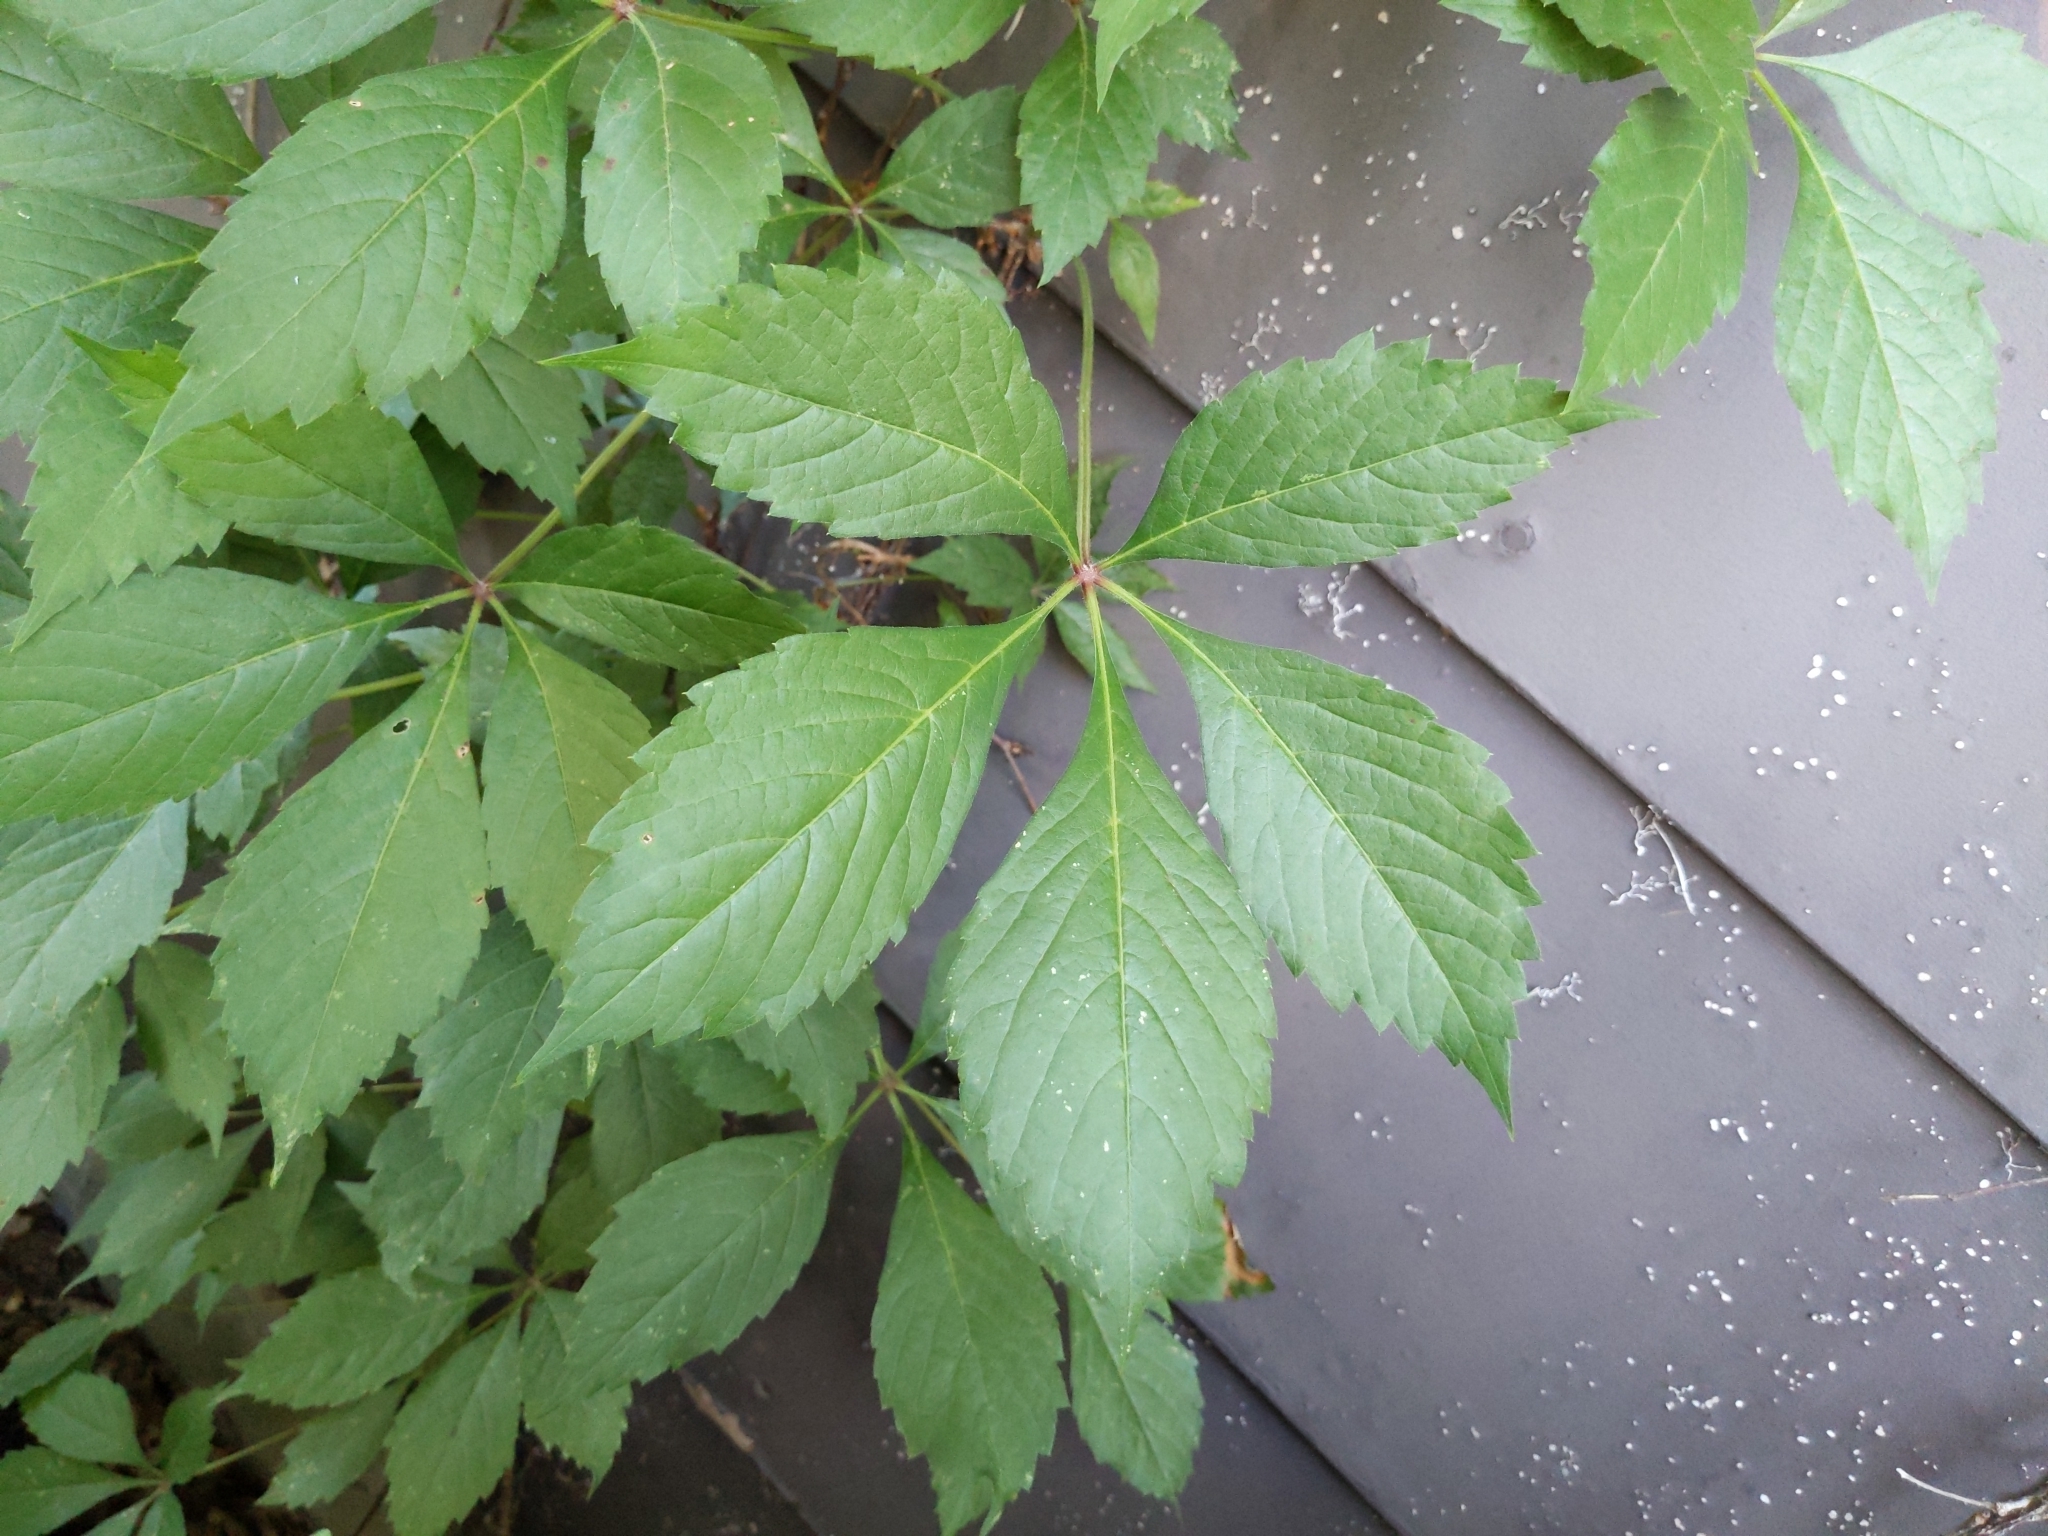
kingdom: Plantae
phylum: Tracheophyta
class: Magnoliopsida
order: Vitales
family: Vitaceae
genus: Parthenocissus
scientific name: Parthenocissus quinquefolia
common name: Virginia-creeper
